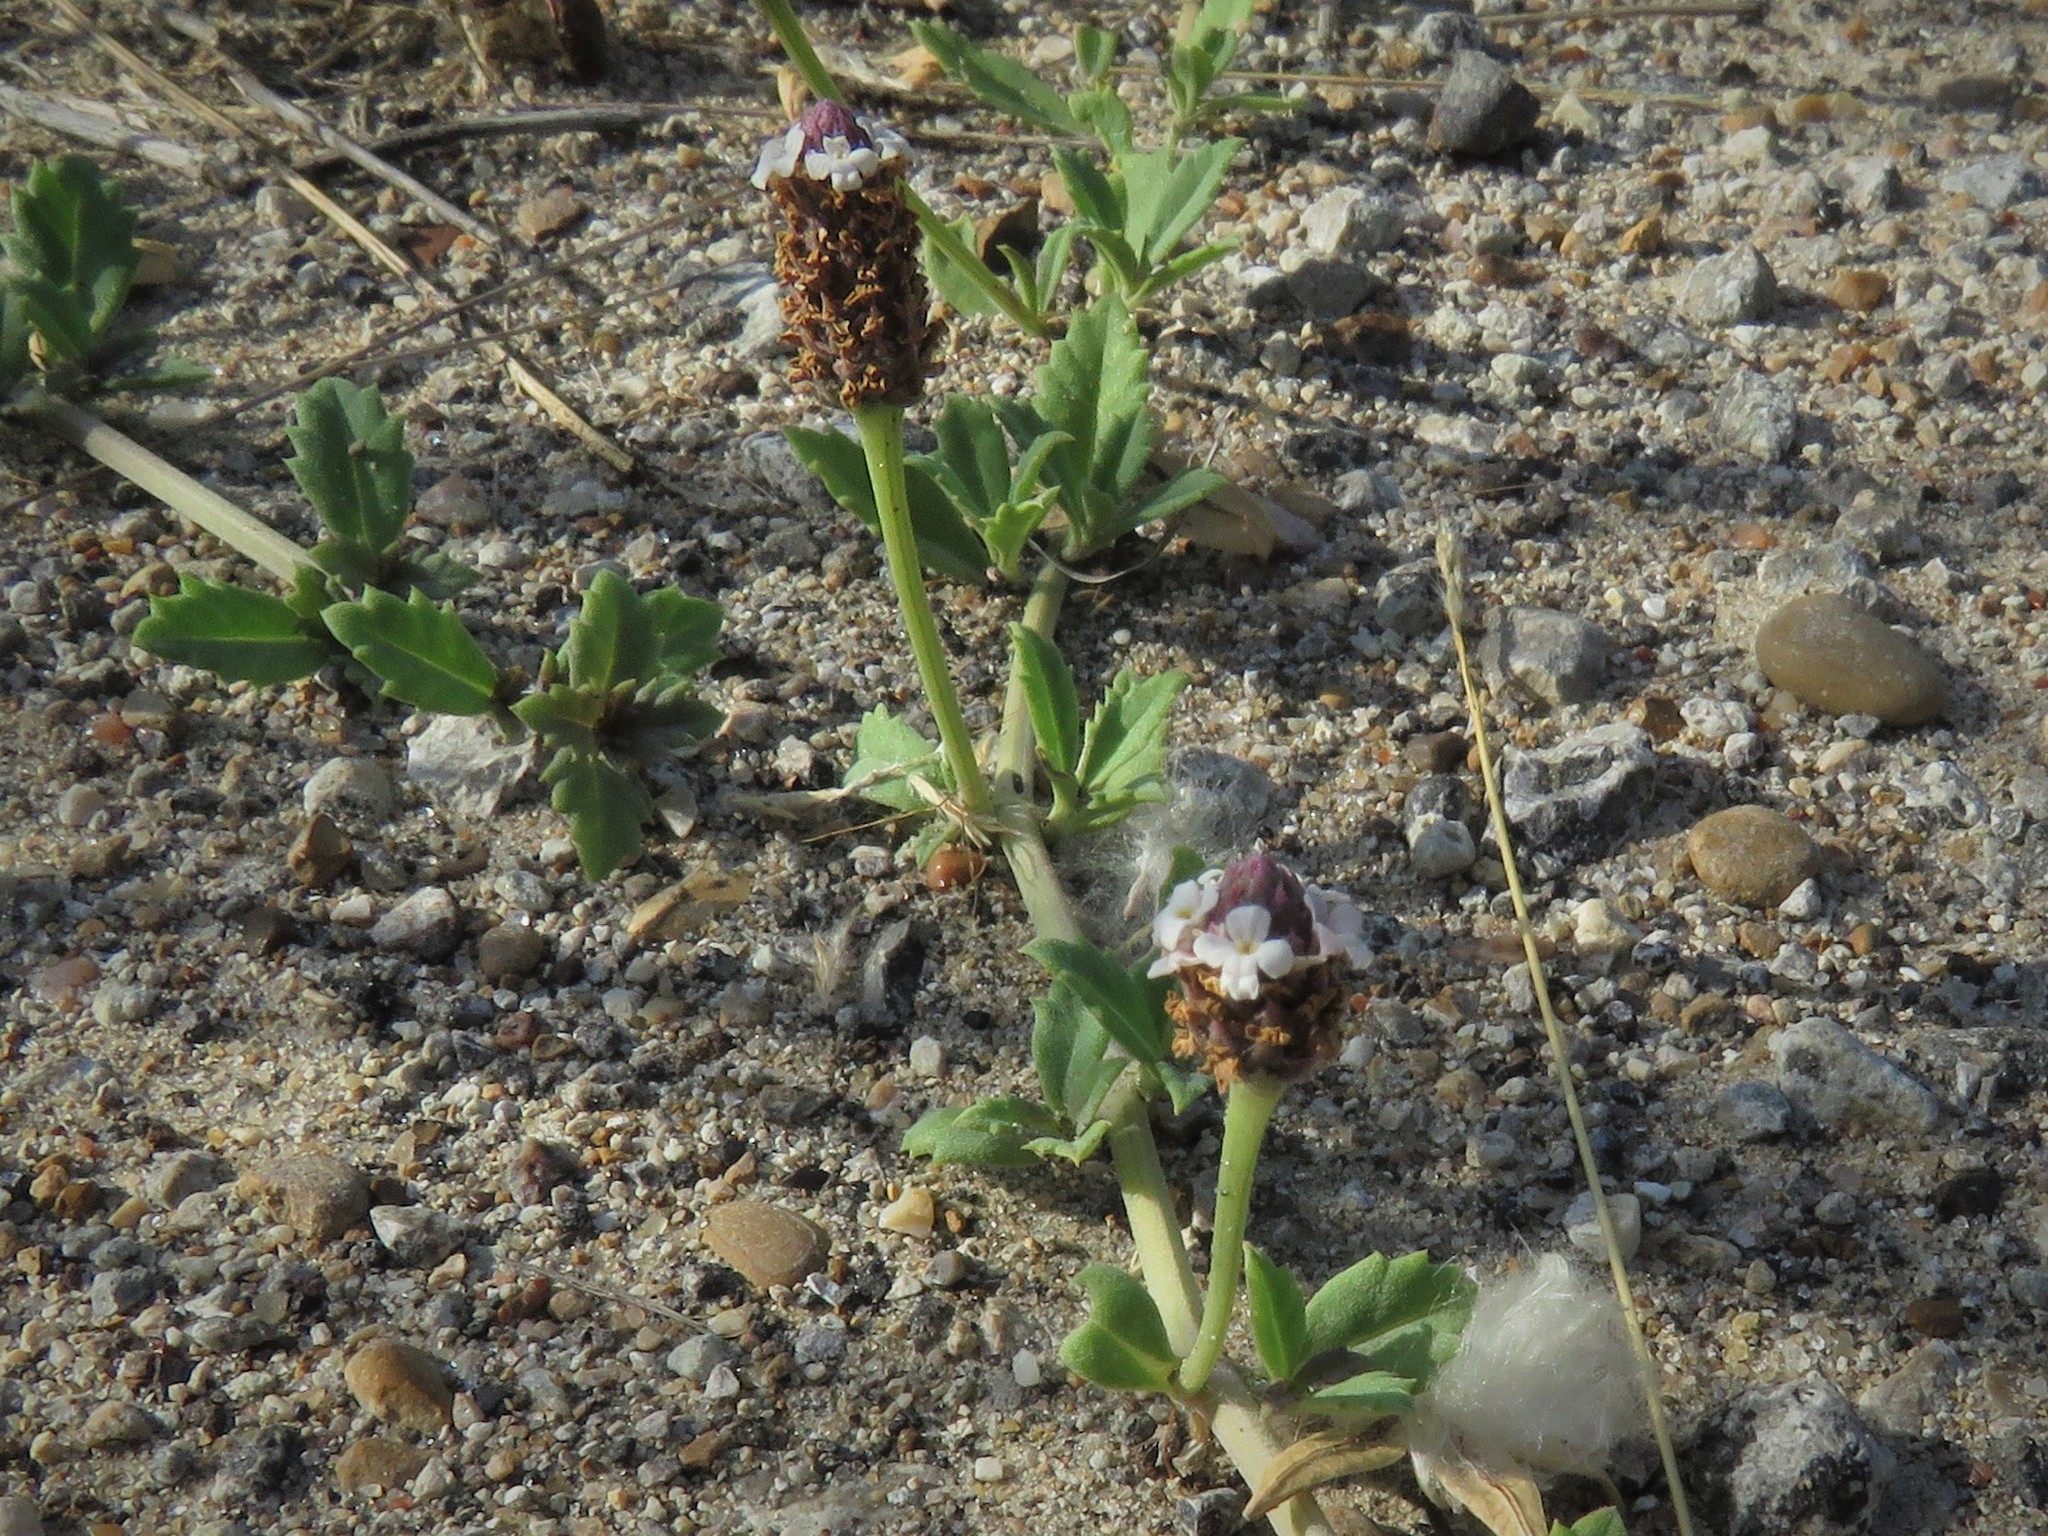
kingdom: Plantae
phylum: Tracheophyta
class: Magnoliopsida
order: Lamiales
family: Verbenaceae
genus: Phyla
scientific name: Phyla nodiflora
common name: Frogfruit
